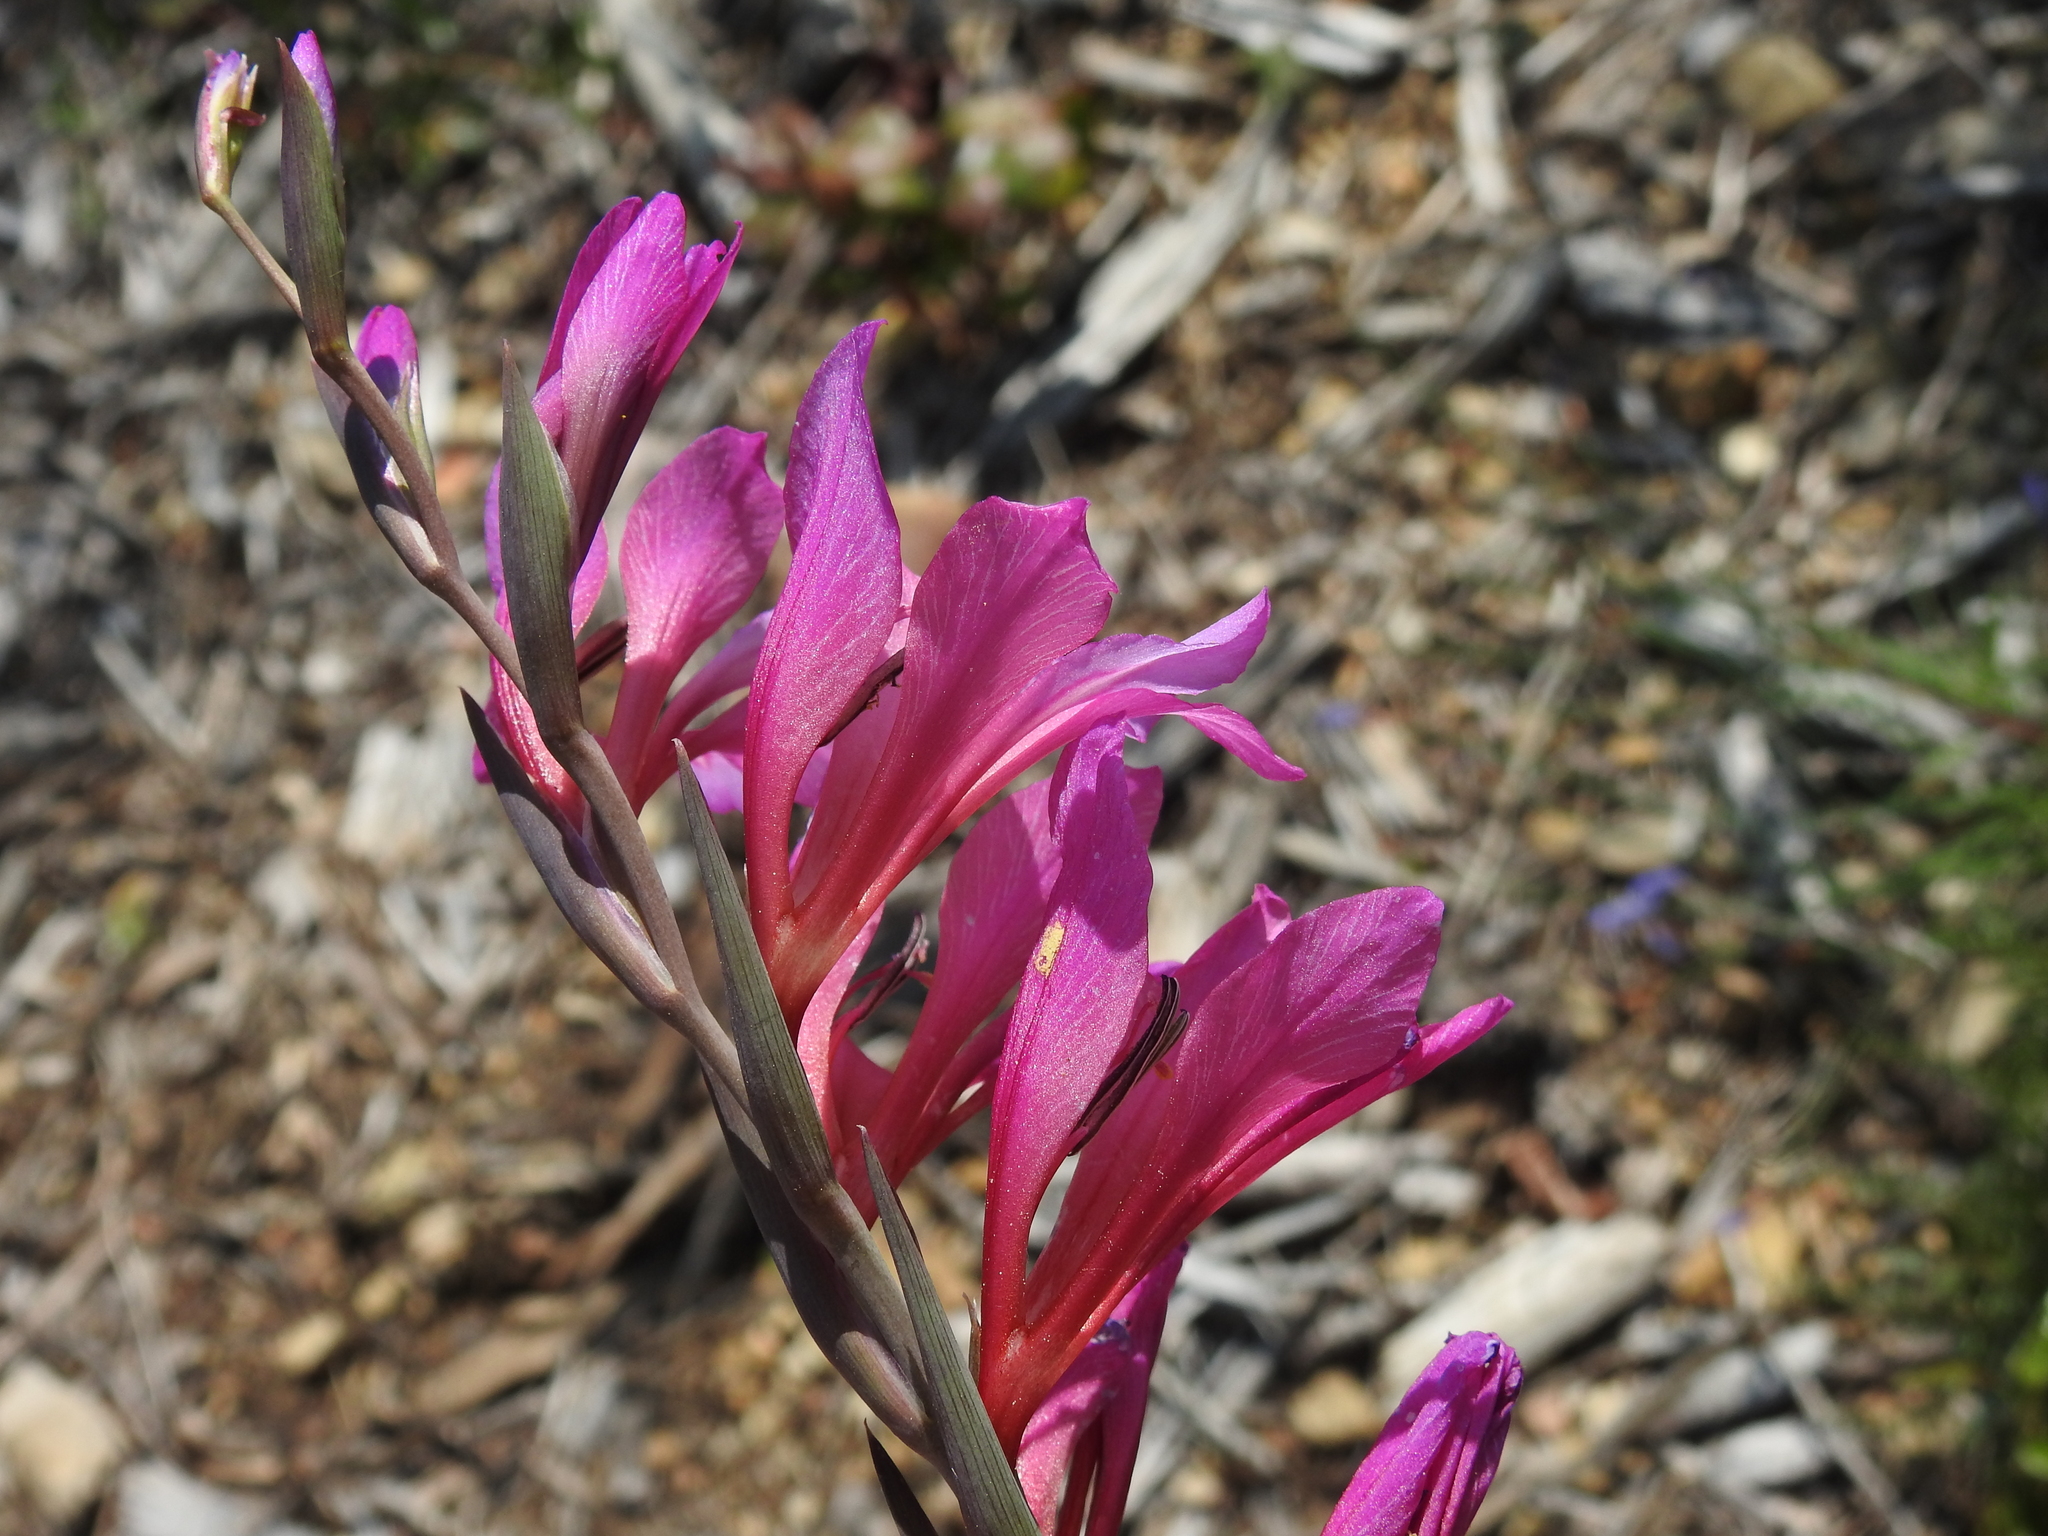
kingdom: Plantae
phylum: Tracheophyta
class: Liliopsida
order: Asparagales
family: Iridaceae
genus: Gladiolus
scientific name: Gladiolus dubius
